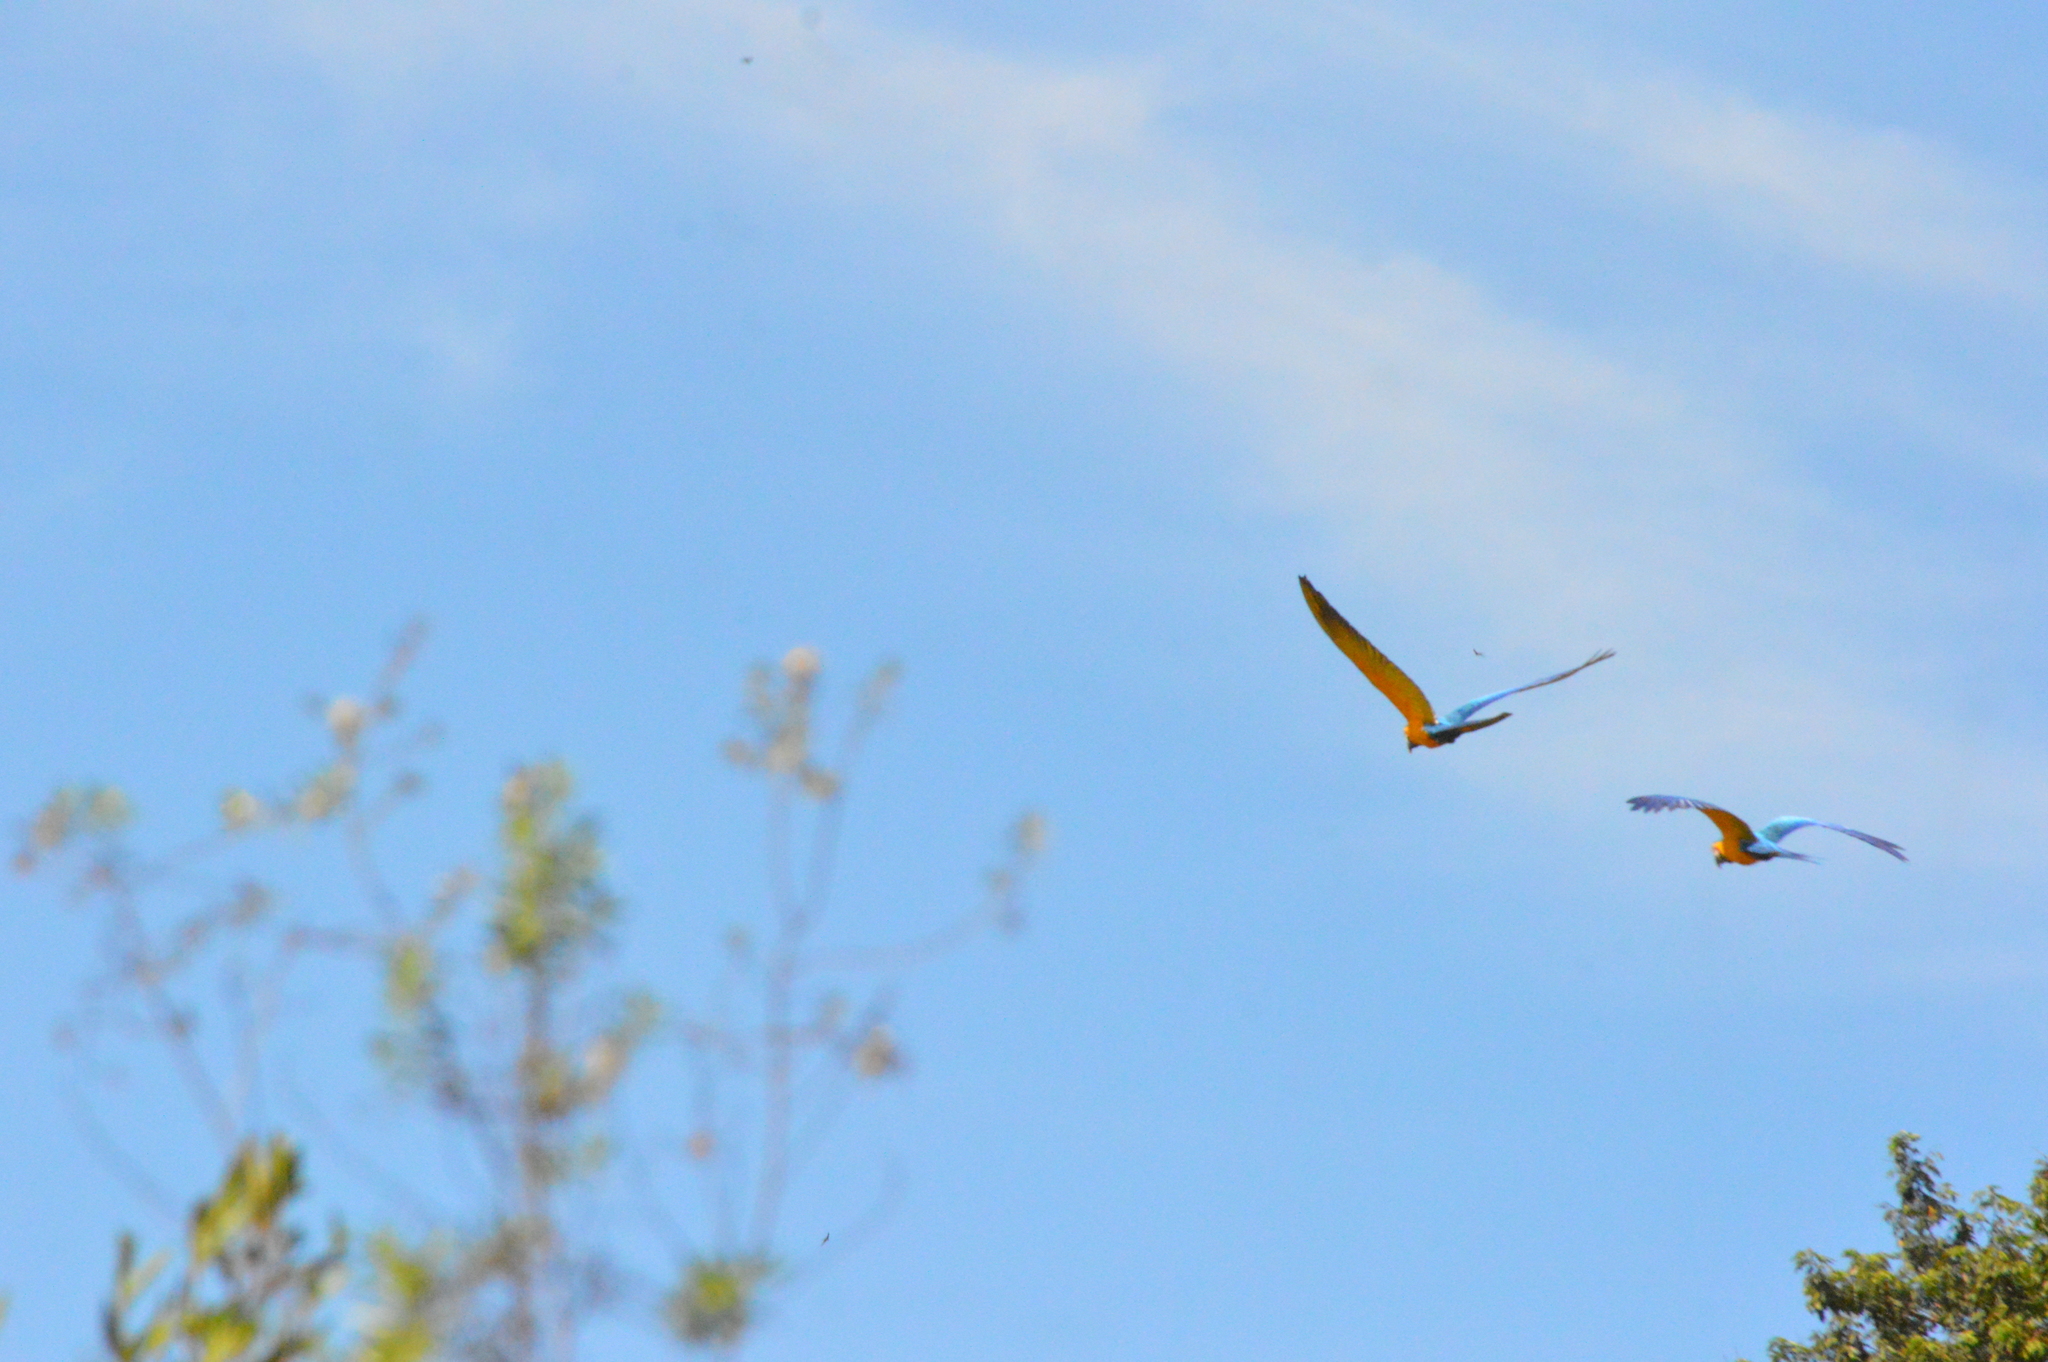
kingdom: Animalia
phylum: Chordata
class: Aves
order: Psittaciformes
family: Psittacidae
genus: Ara
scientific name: Ara ararauna
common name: Blue-and-yellow macaw
